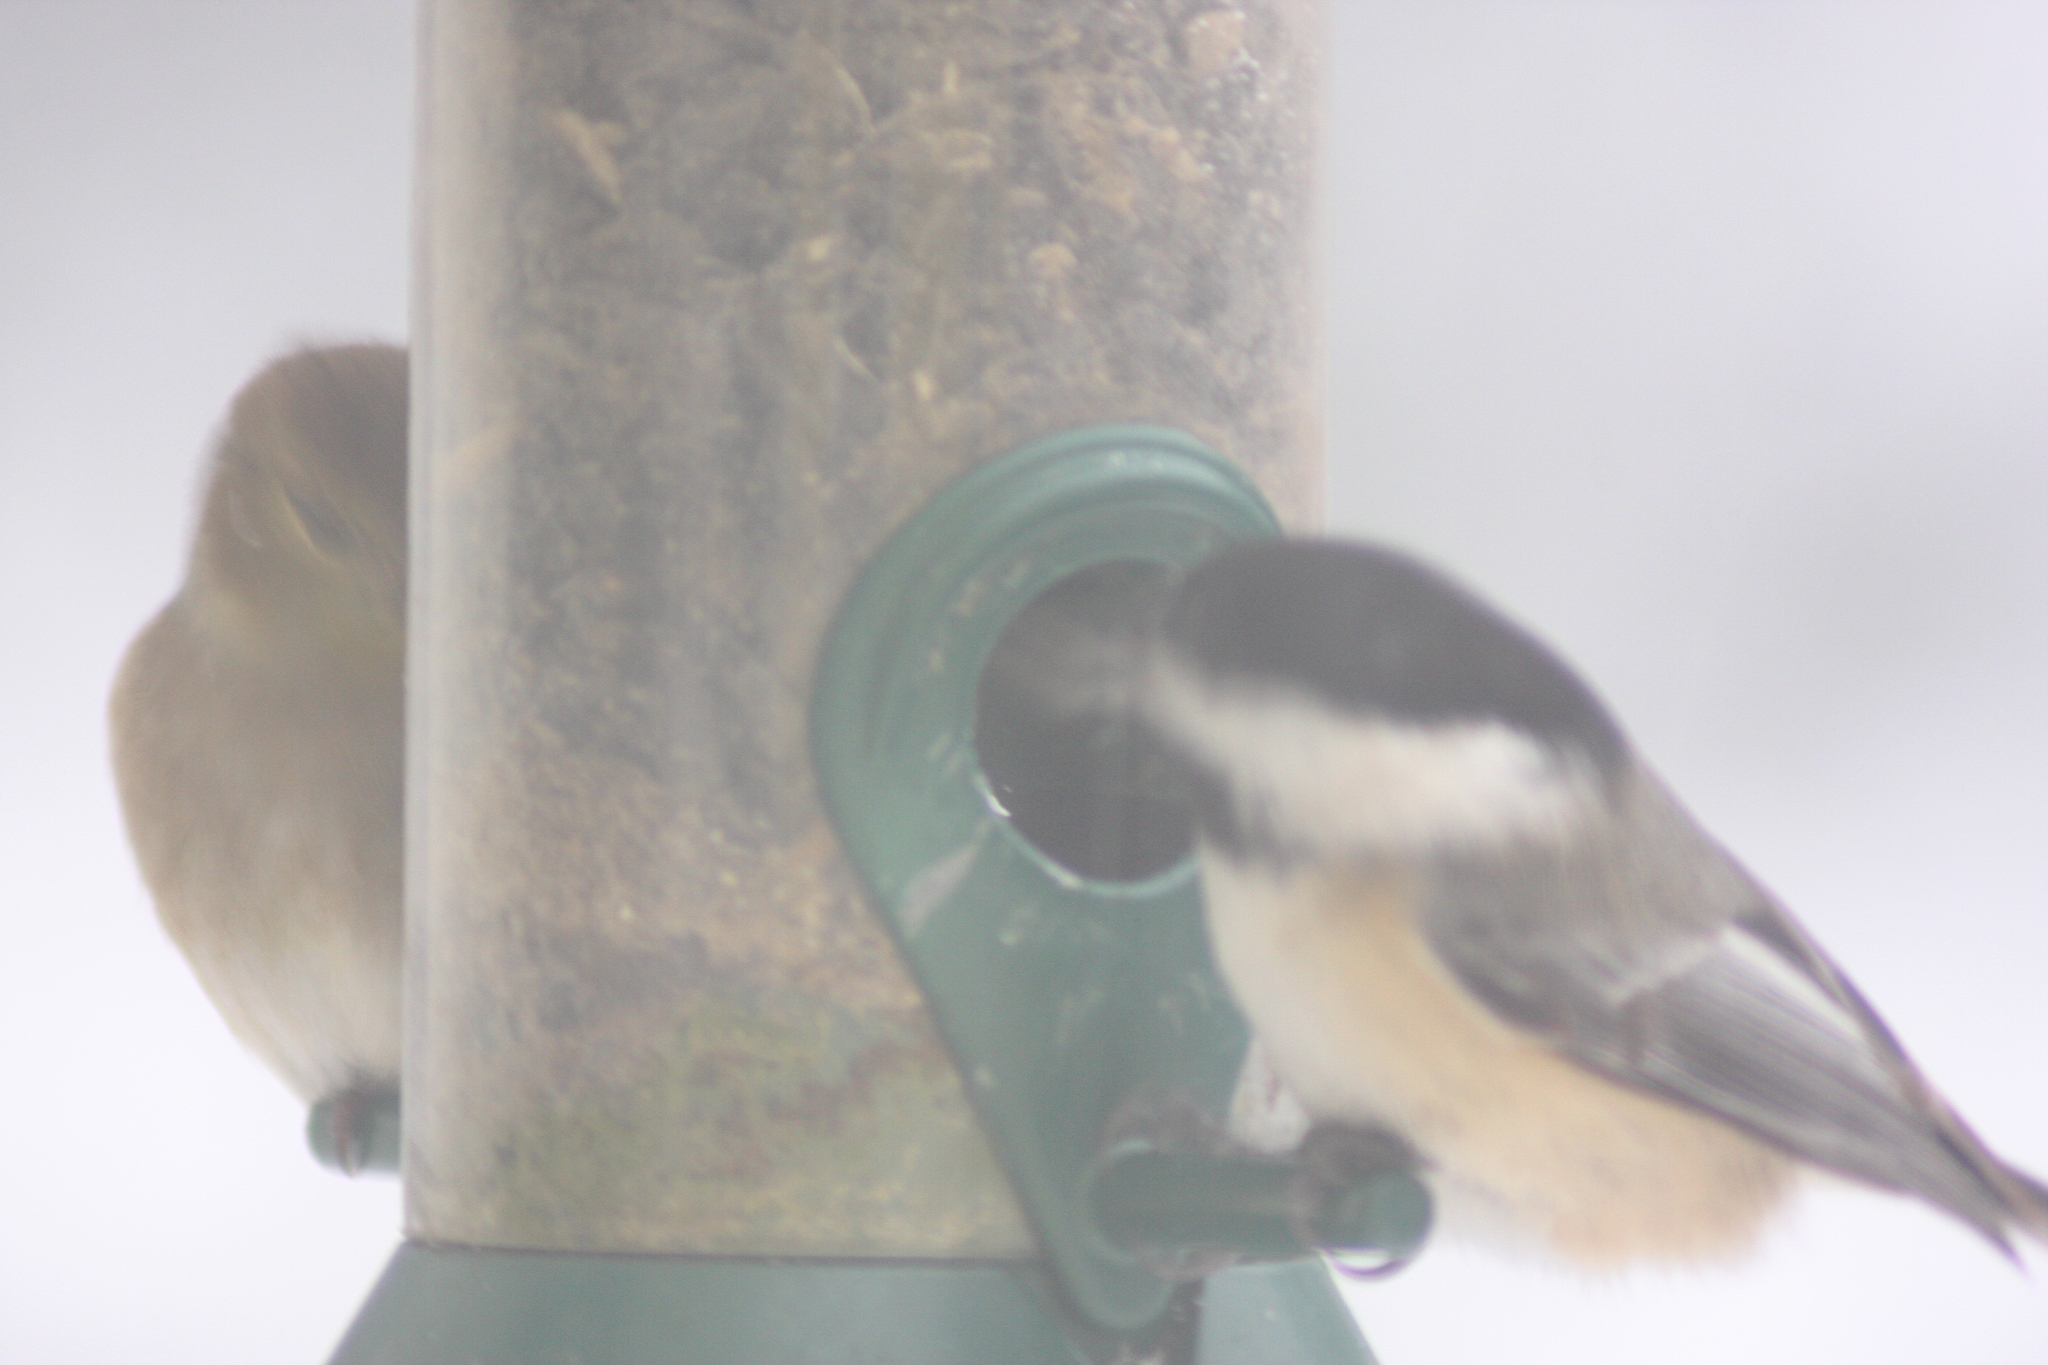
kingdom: Animalia
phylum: Chordata
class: Aves
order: Passeriformes
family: Paridae
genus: Poecile
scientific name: Poecile atricapillus
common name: Black-capped chickadee
